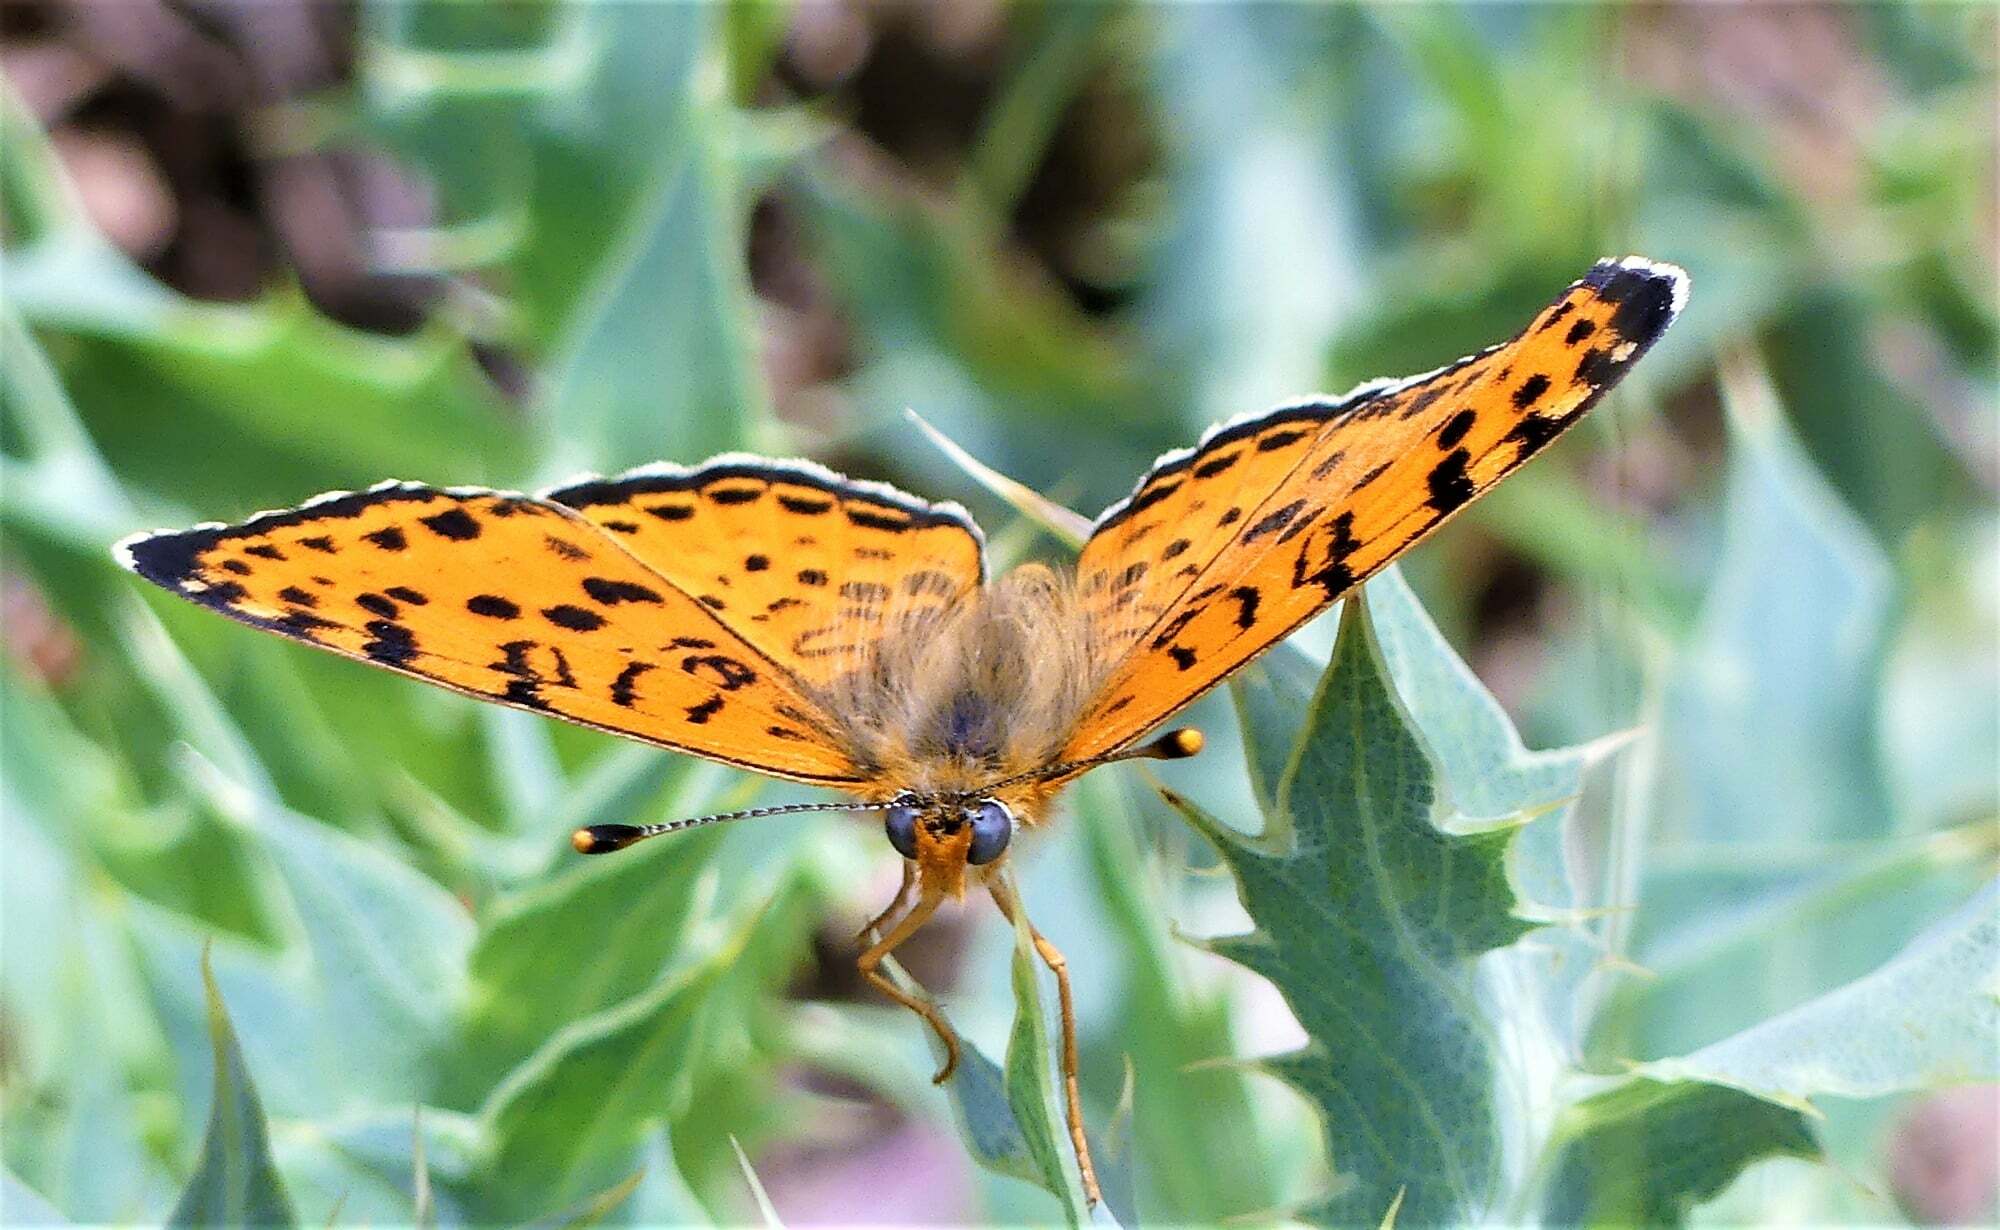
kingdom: Animalia
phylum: Arthropoda
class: Insecta
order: Lepidoptera
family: Nymphalidae
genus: Melitaea
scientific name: Melitaea didyma
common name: Spotted fritillary
